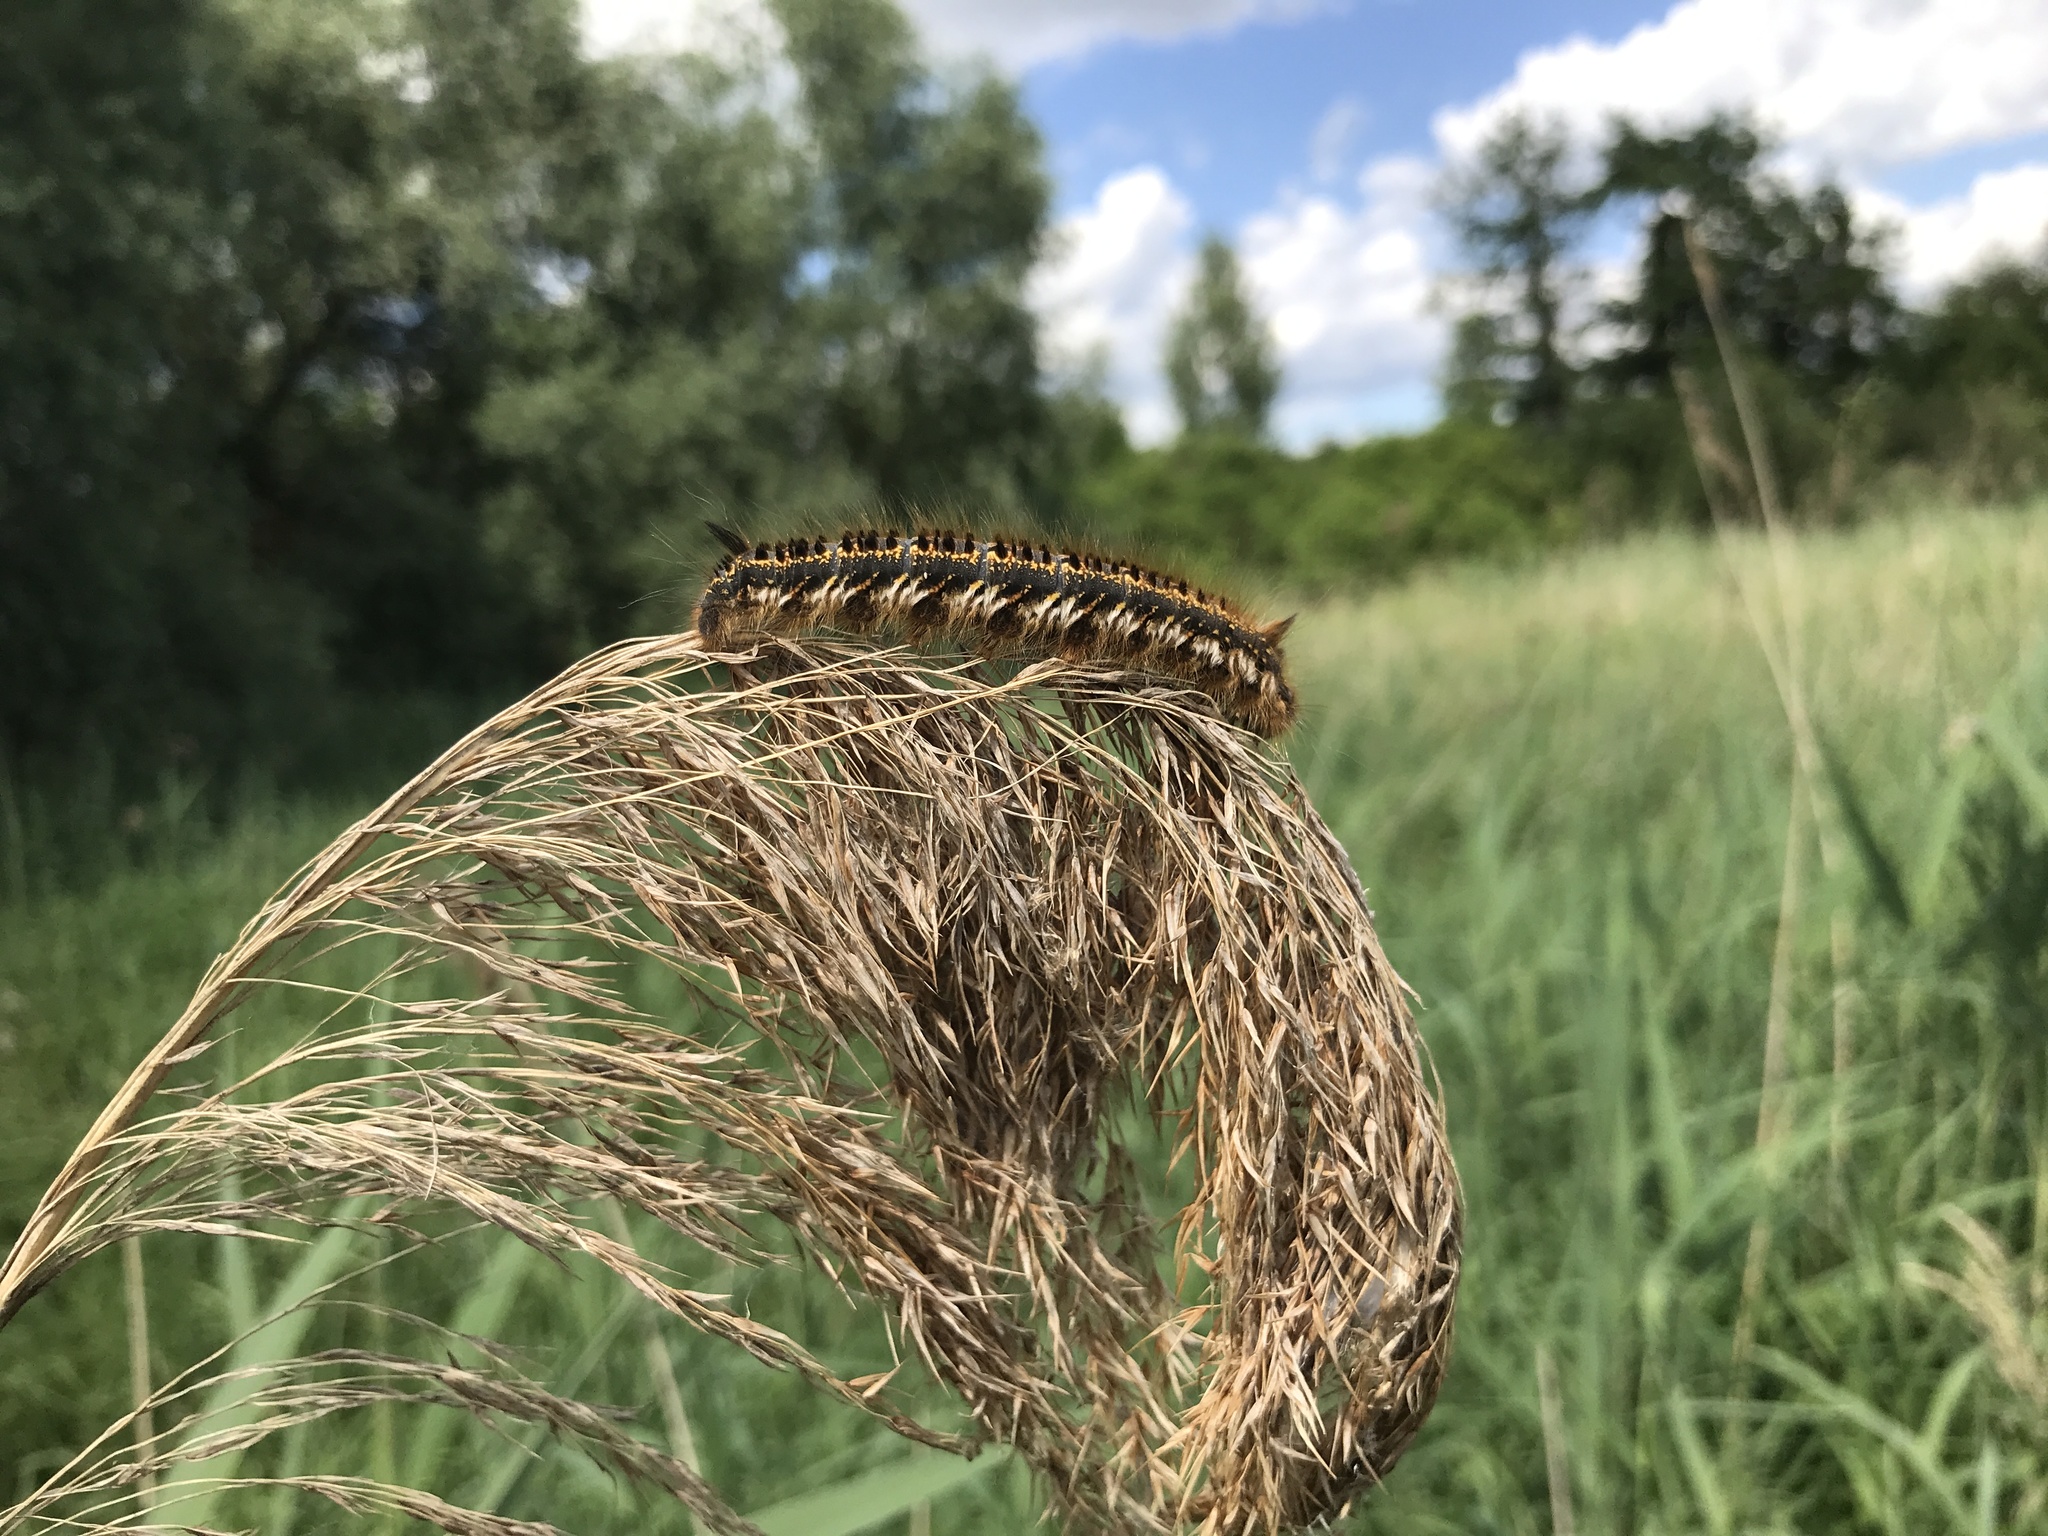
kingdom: Animalia
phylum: Arthropoda
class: Insecta
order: Lepidoptera
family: Lasiocampidae
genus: Euthrix
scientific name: Euthrix potatoria
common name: Drinker
